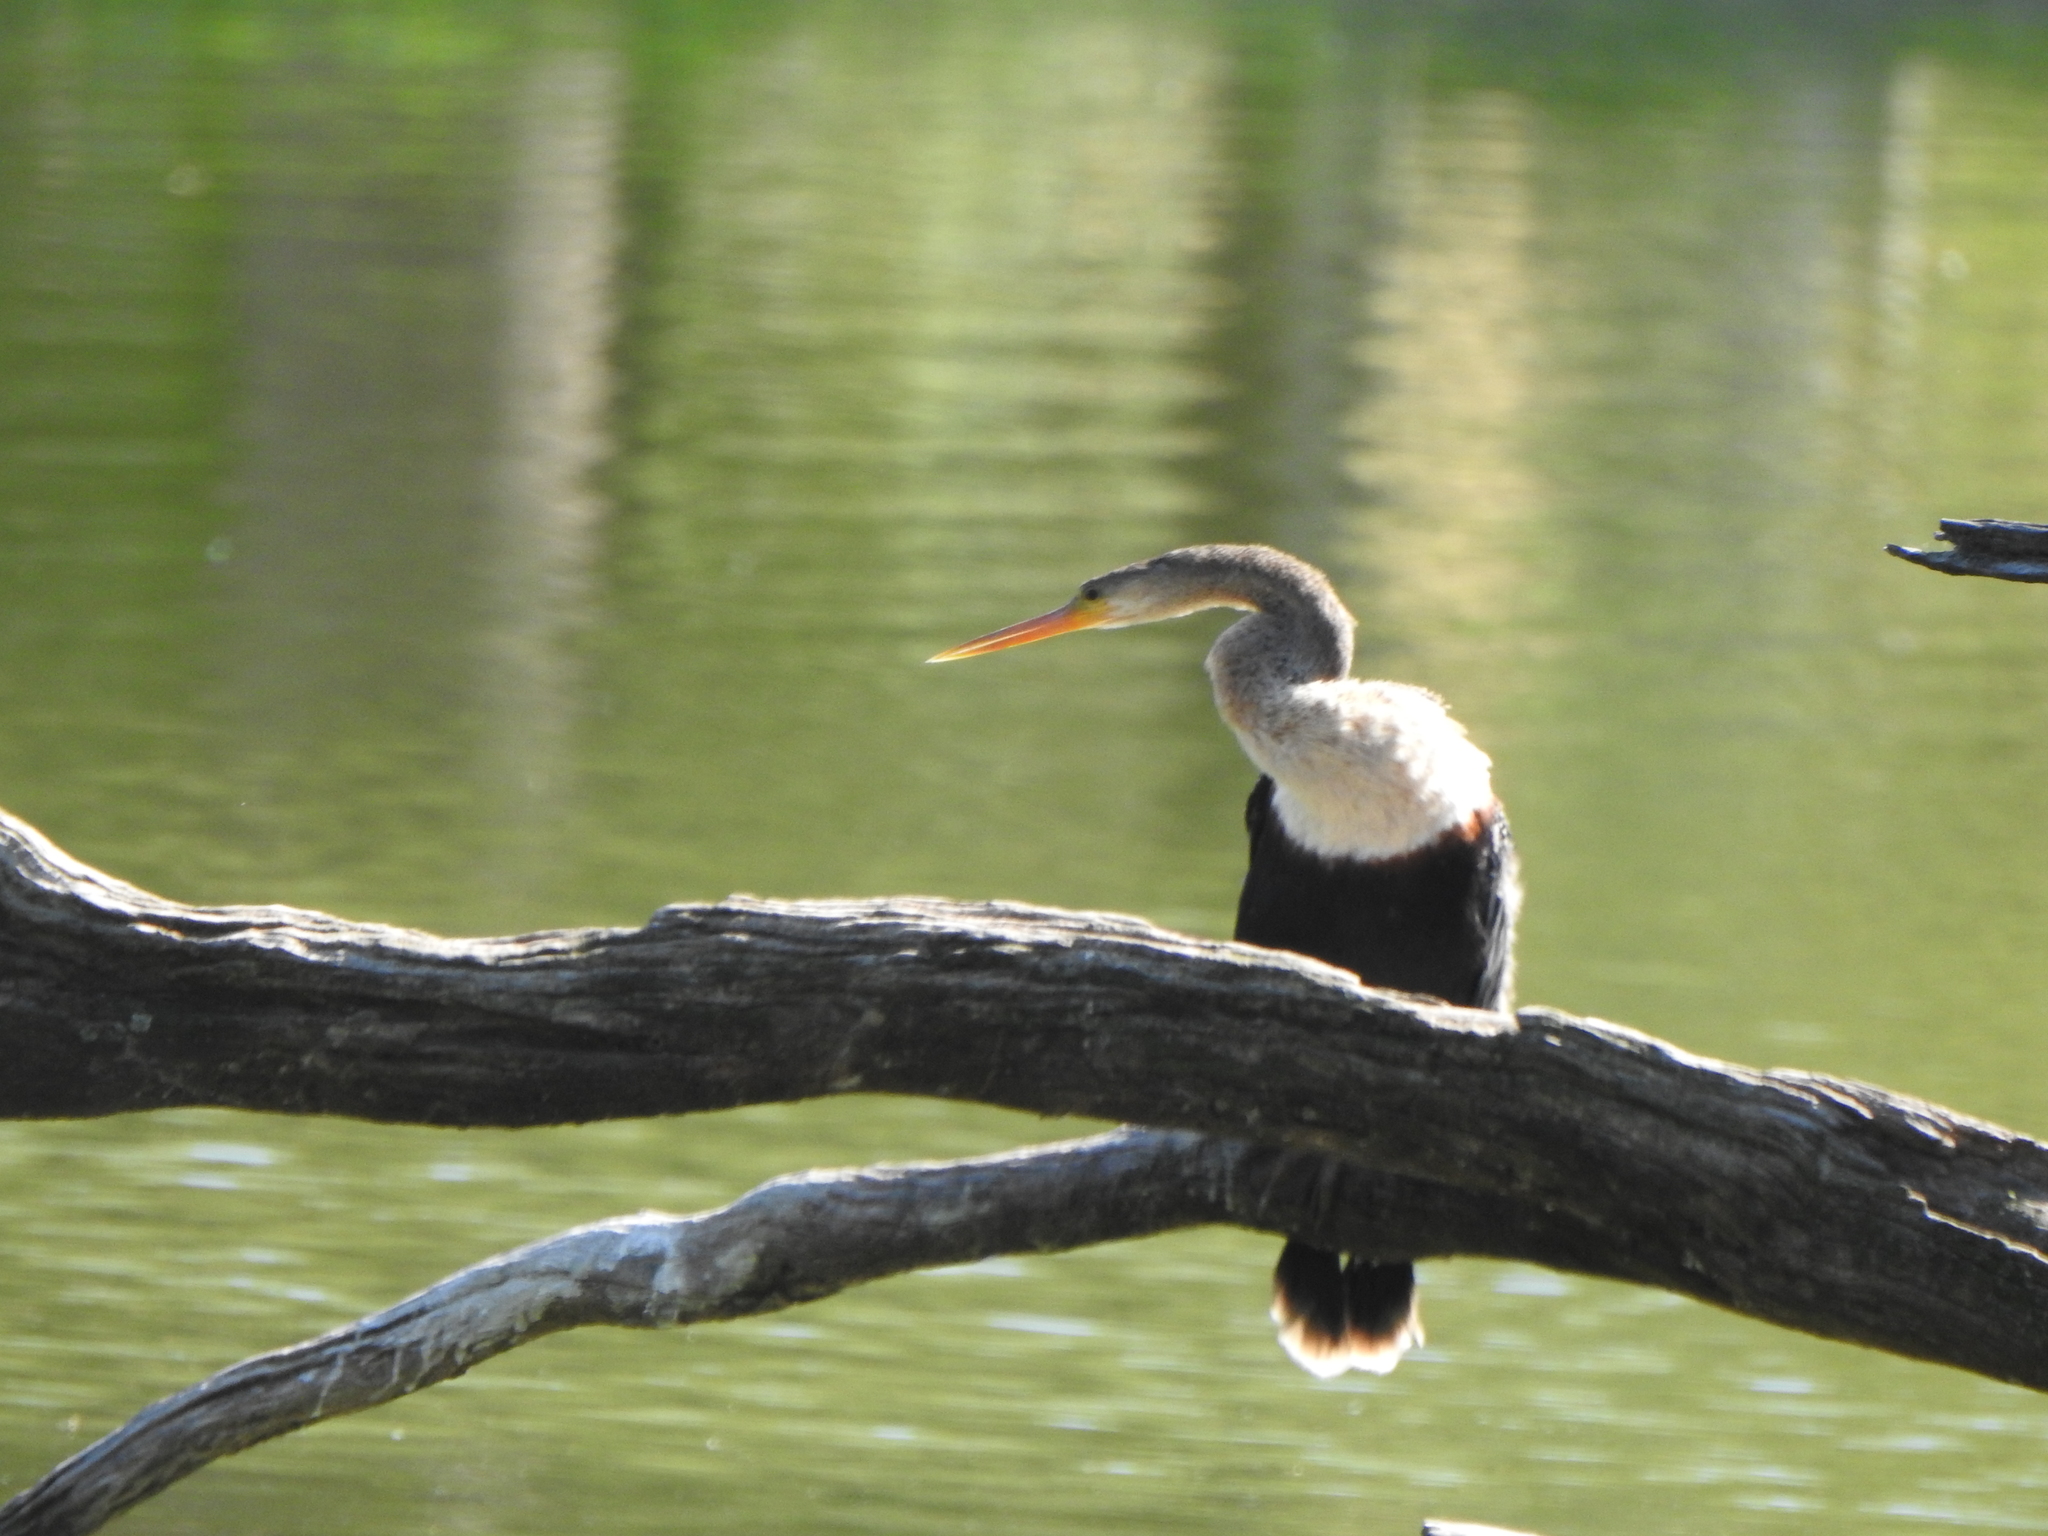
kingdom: Animalia
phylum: Chordata
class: Aves
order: Suliformes
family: Anhingidae
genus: Anhinga
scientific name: Anhinga anhinga
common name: Anhinga
